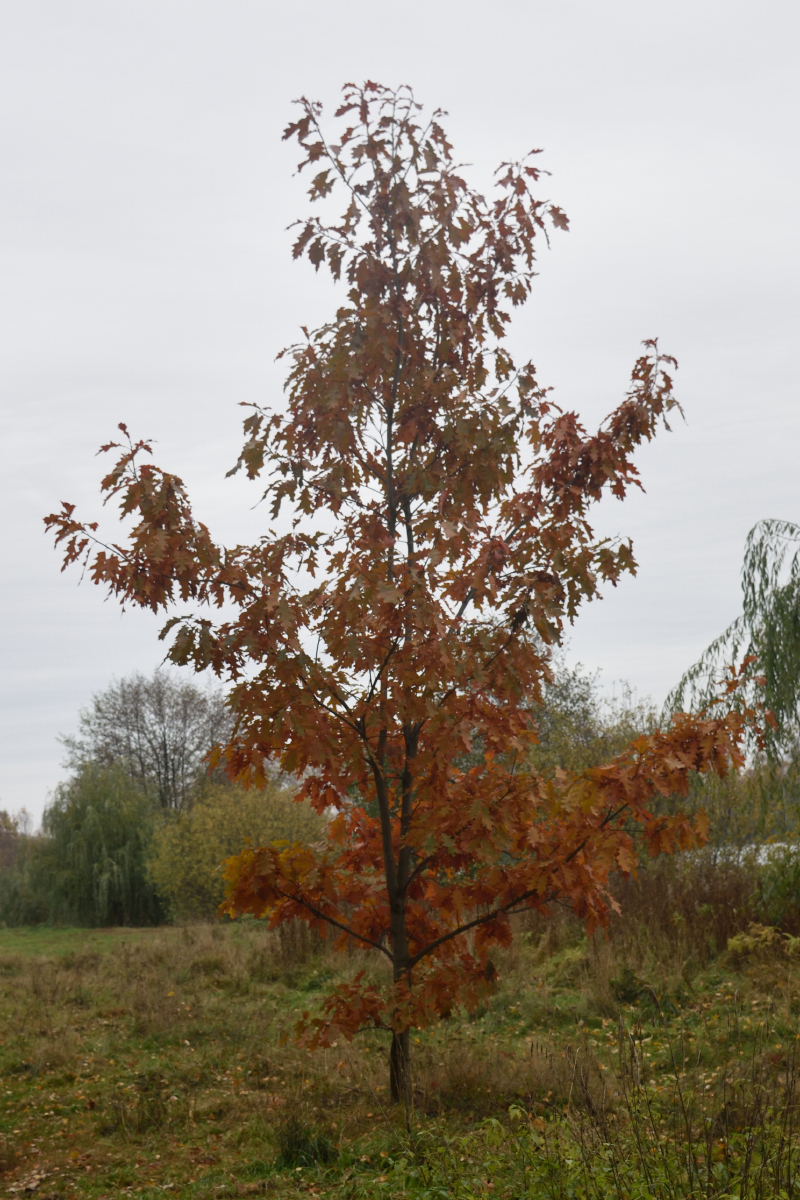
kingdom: Plantae
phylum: Tracheophyta
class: Magnoliopsida
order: Fagales
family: Fagaceae
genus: Quercus
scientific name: Quercus rubra
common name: Red oak
